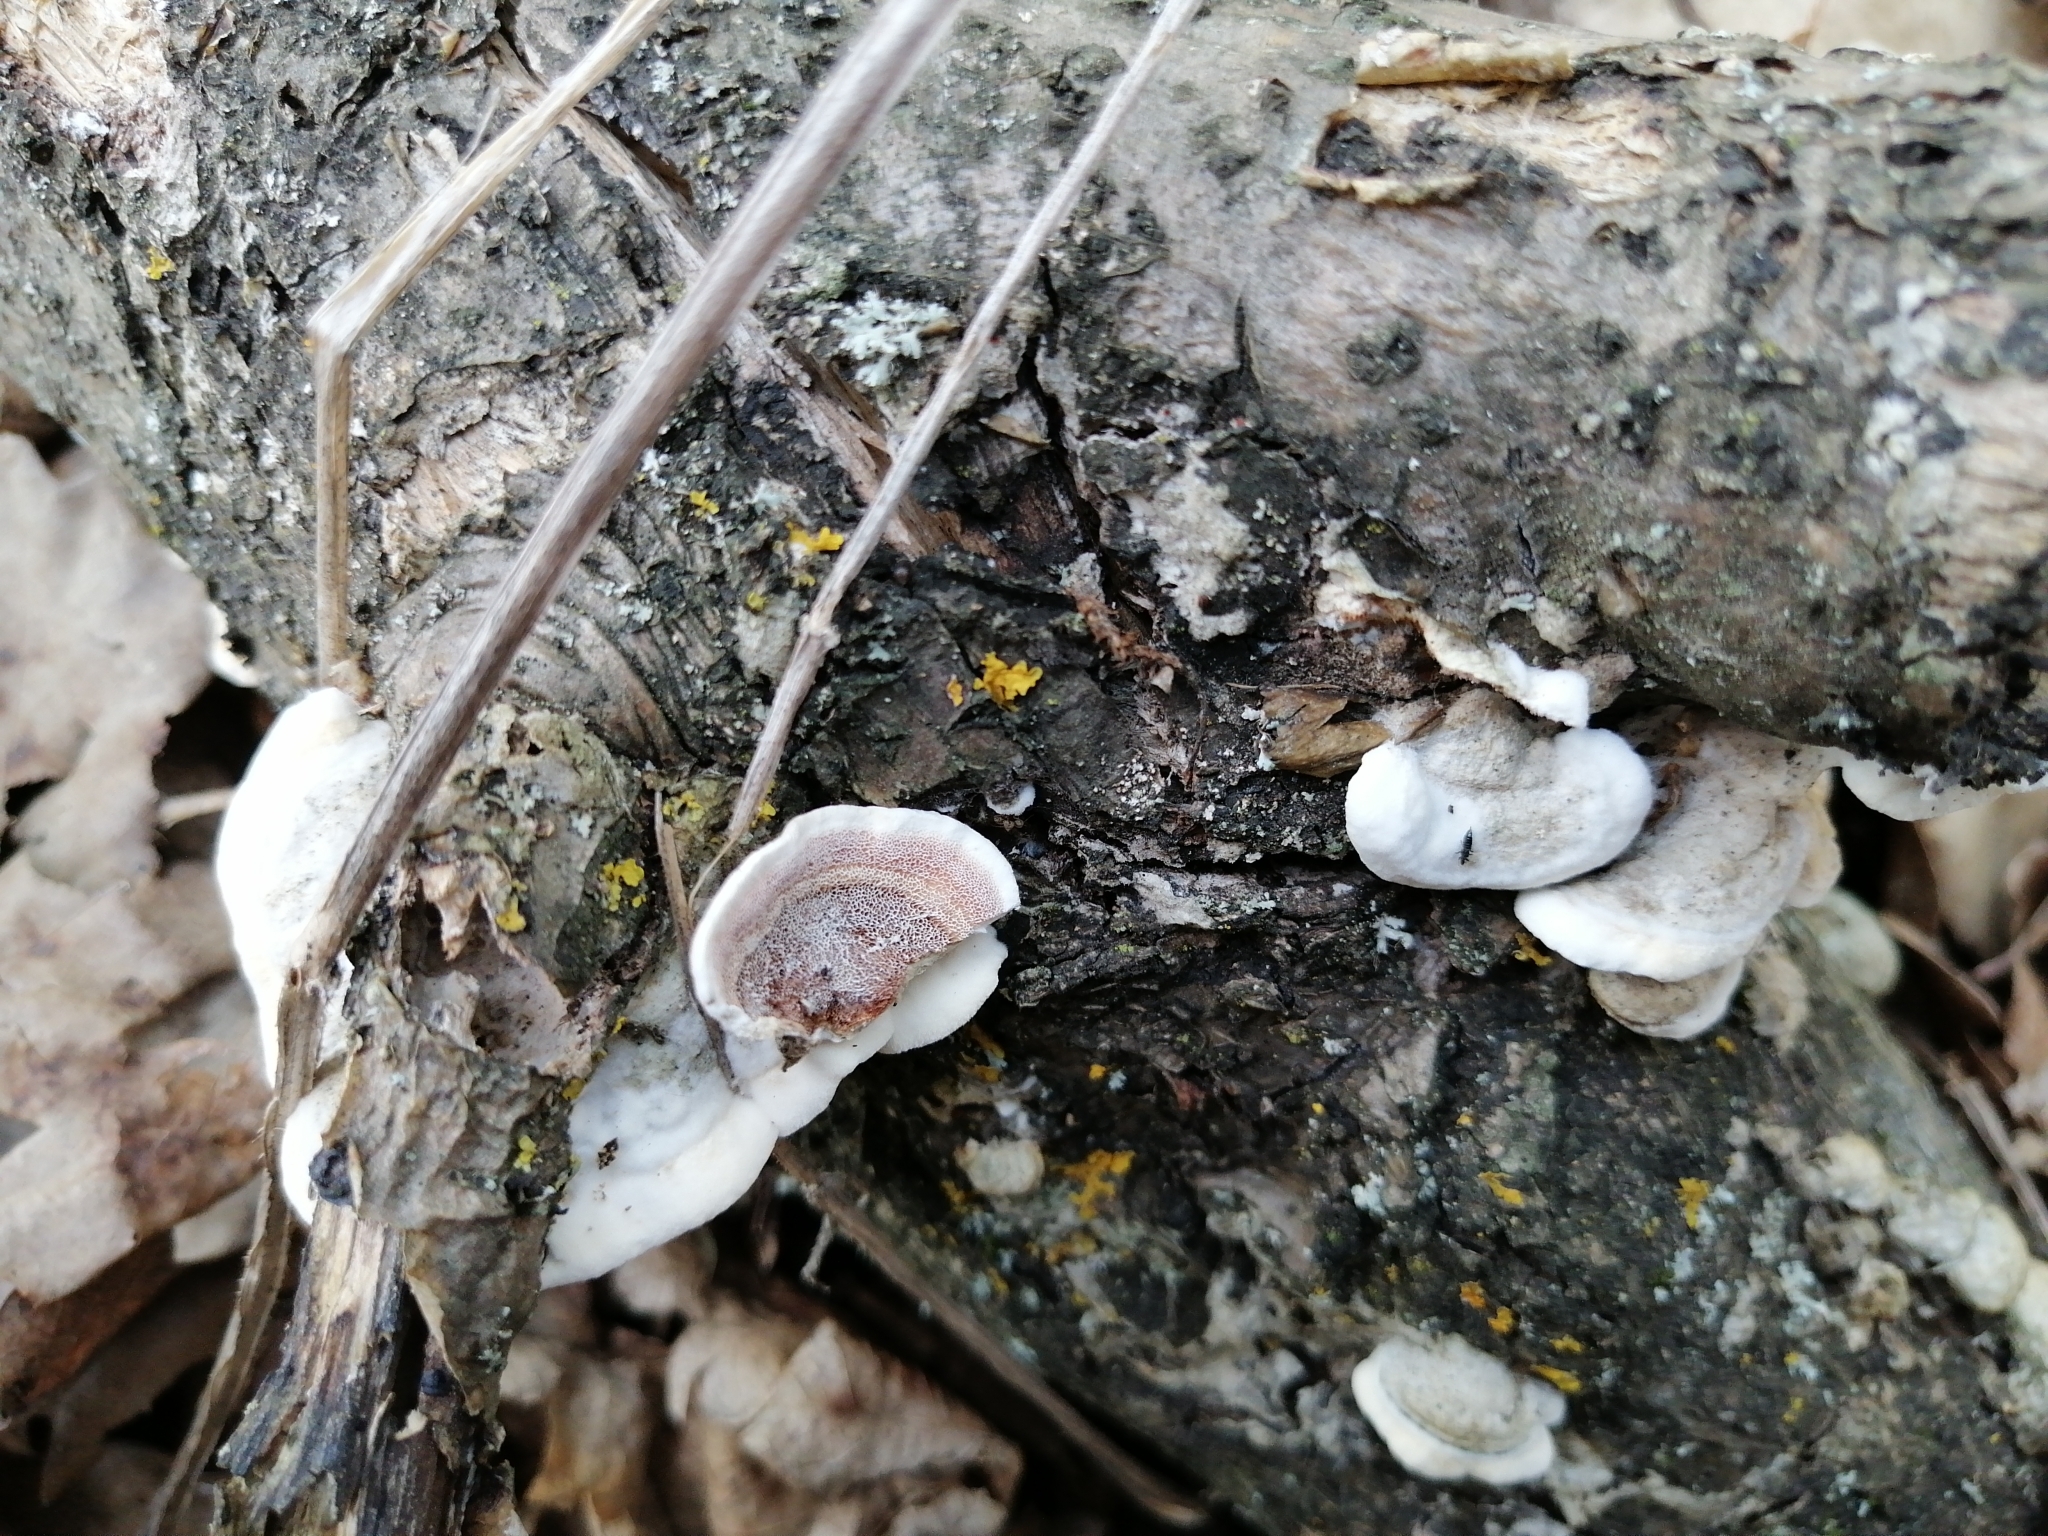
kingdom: Fungi
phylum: Basidiomycota
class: Agaricomycetes
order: Polyporales
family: Irpicaceae
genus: Vitreoporus
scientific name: Vitreoporus dichrous
